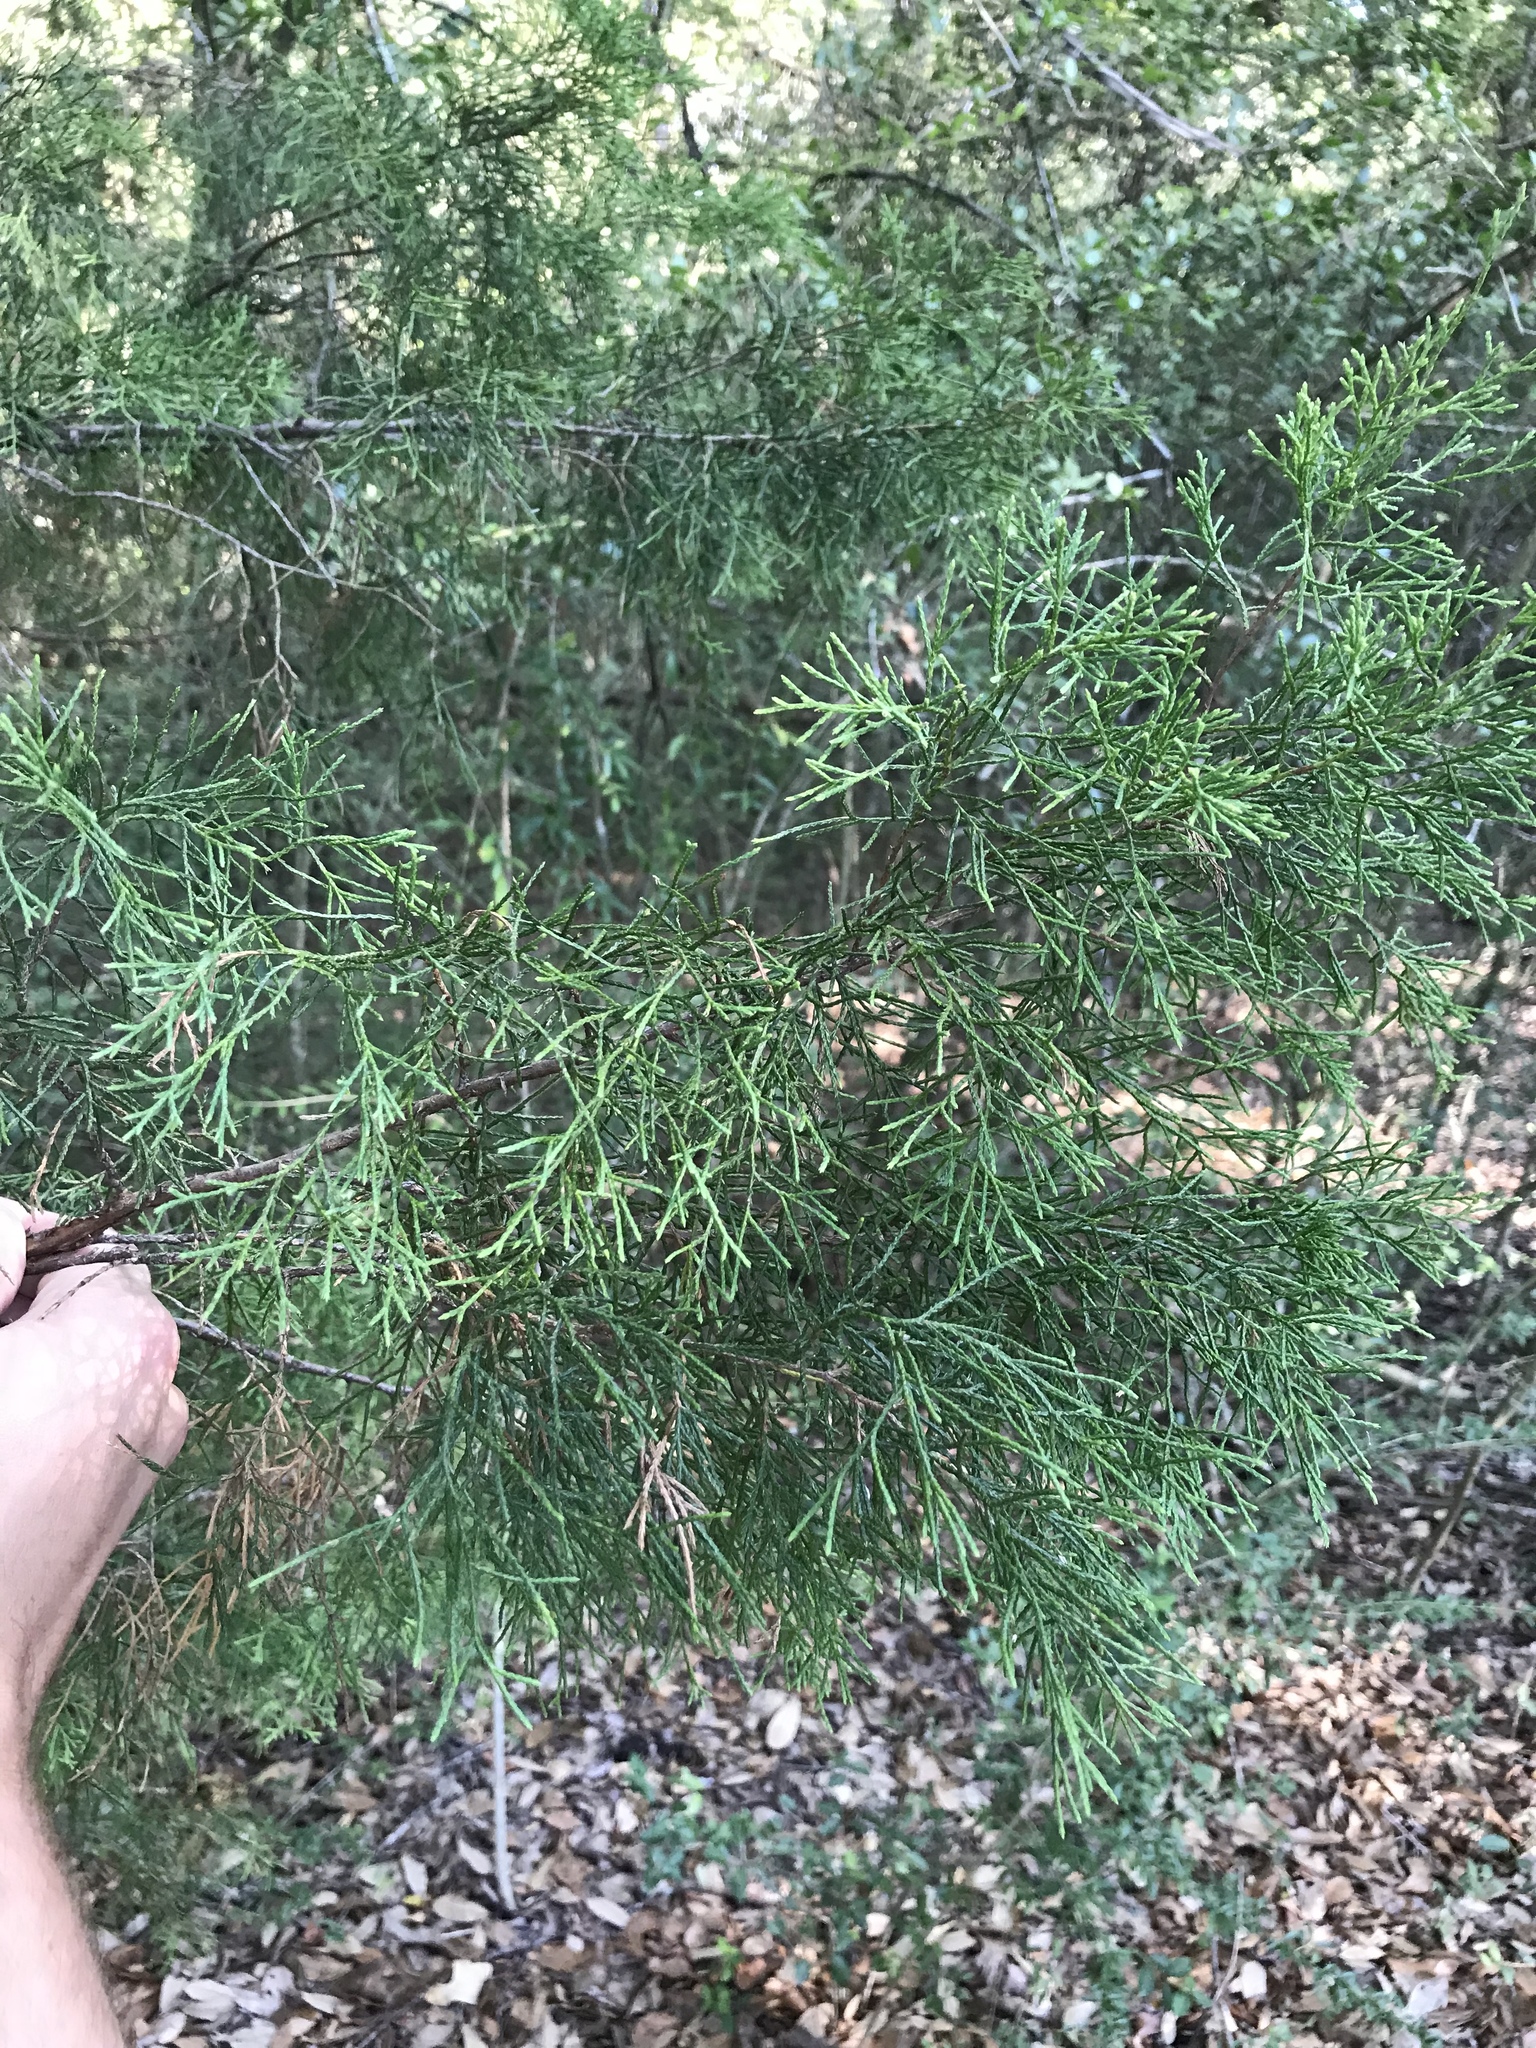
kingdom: Plantae
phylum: Tracheophyta
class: Pinopsida
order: Pinales
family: Cupressaceae
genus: Juniperus
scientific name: Juniperus virginiana
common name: Red juniper
